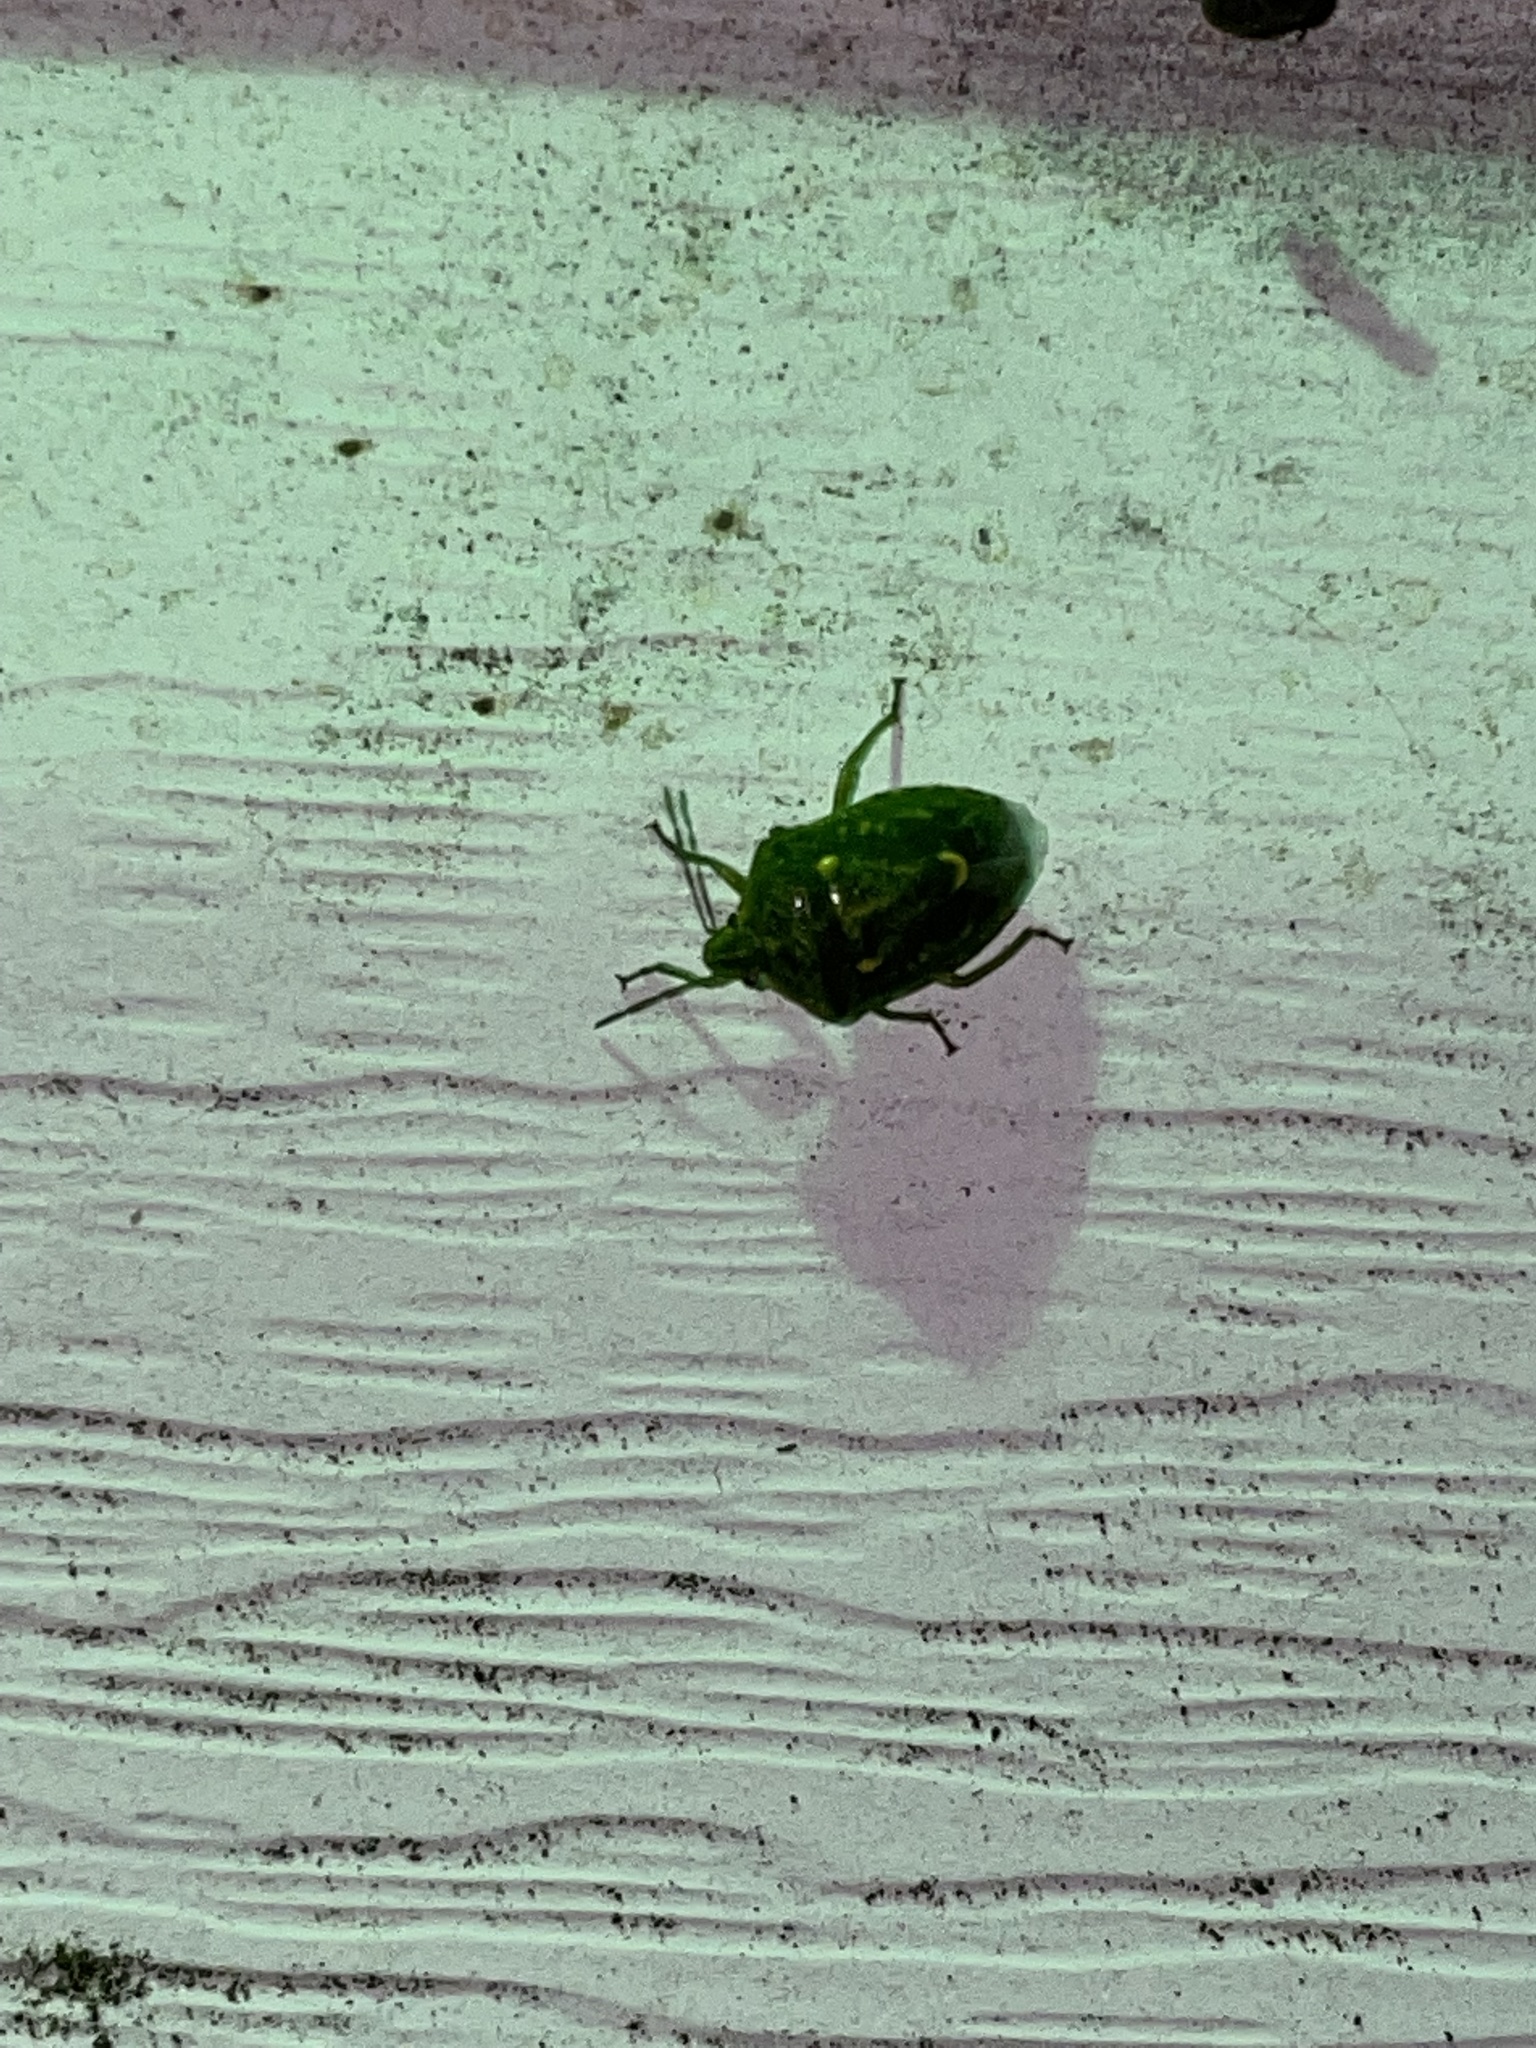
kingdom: Animalia
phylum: Arthropoda
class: Insecta
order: Hemiptera
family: Pentatomidae
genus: Banasa
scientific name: Banasa euchlora
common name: Cedar berry bug
